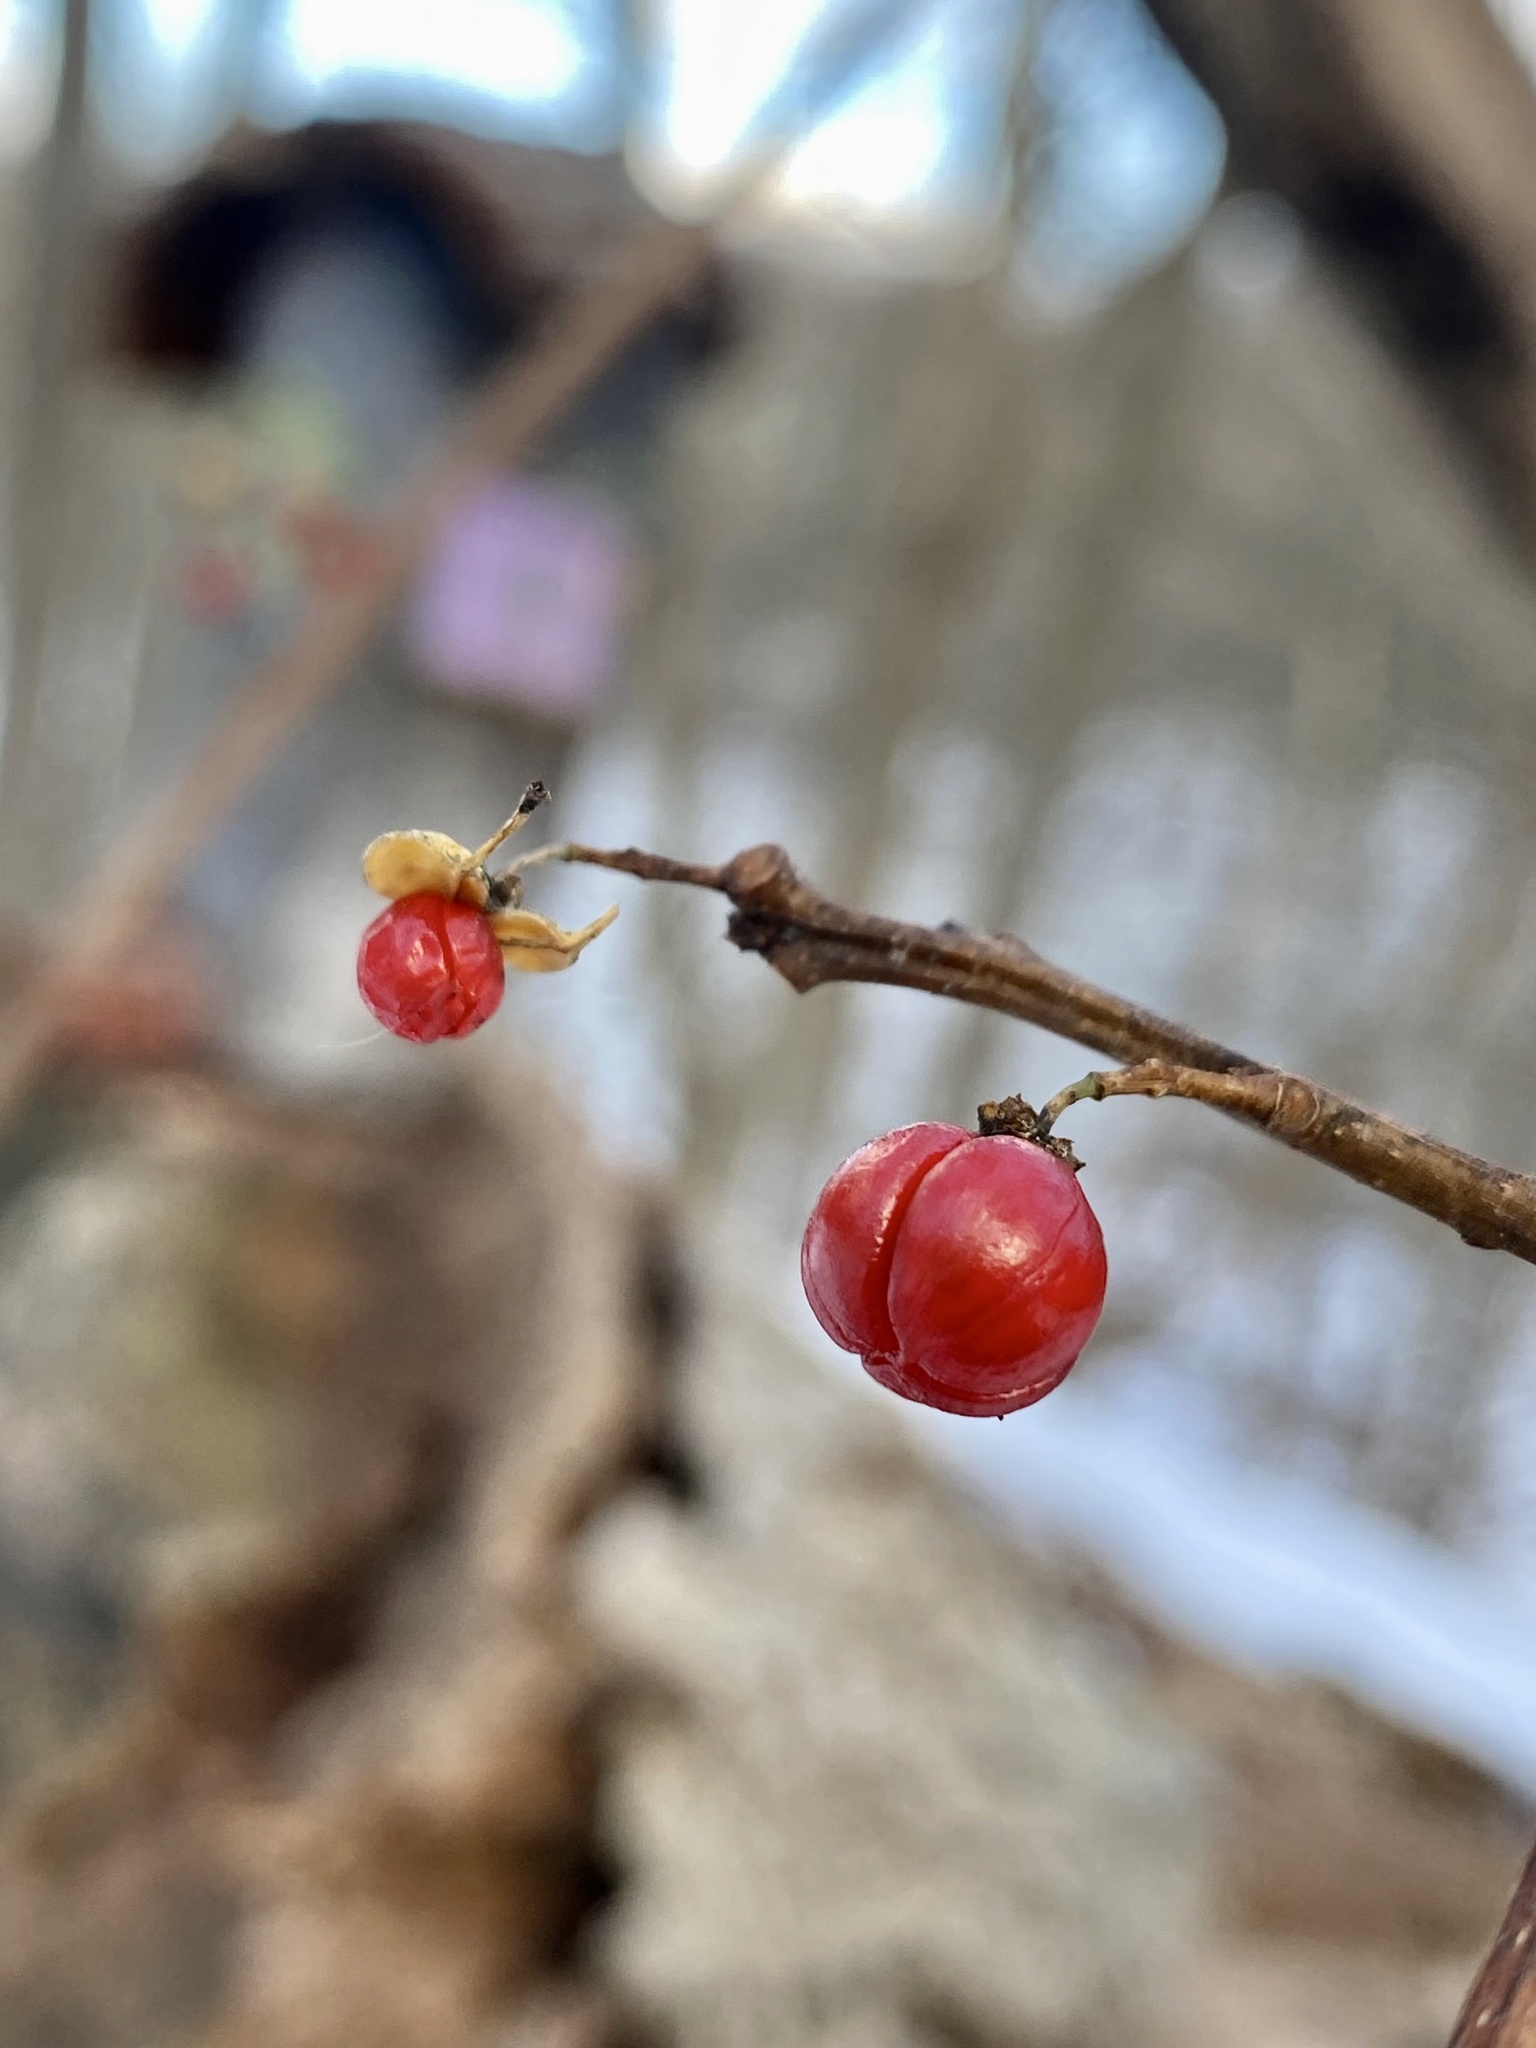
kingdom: Plantae
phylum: Tracheophyta
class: Magnoliopsida
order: Celastrales
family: Celastraceae
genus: Celastrus
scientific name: Celastrus orbiculatus
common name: Oriental bittersweet
